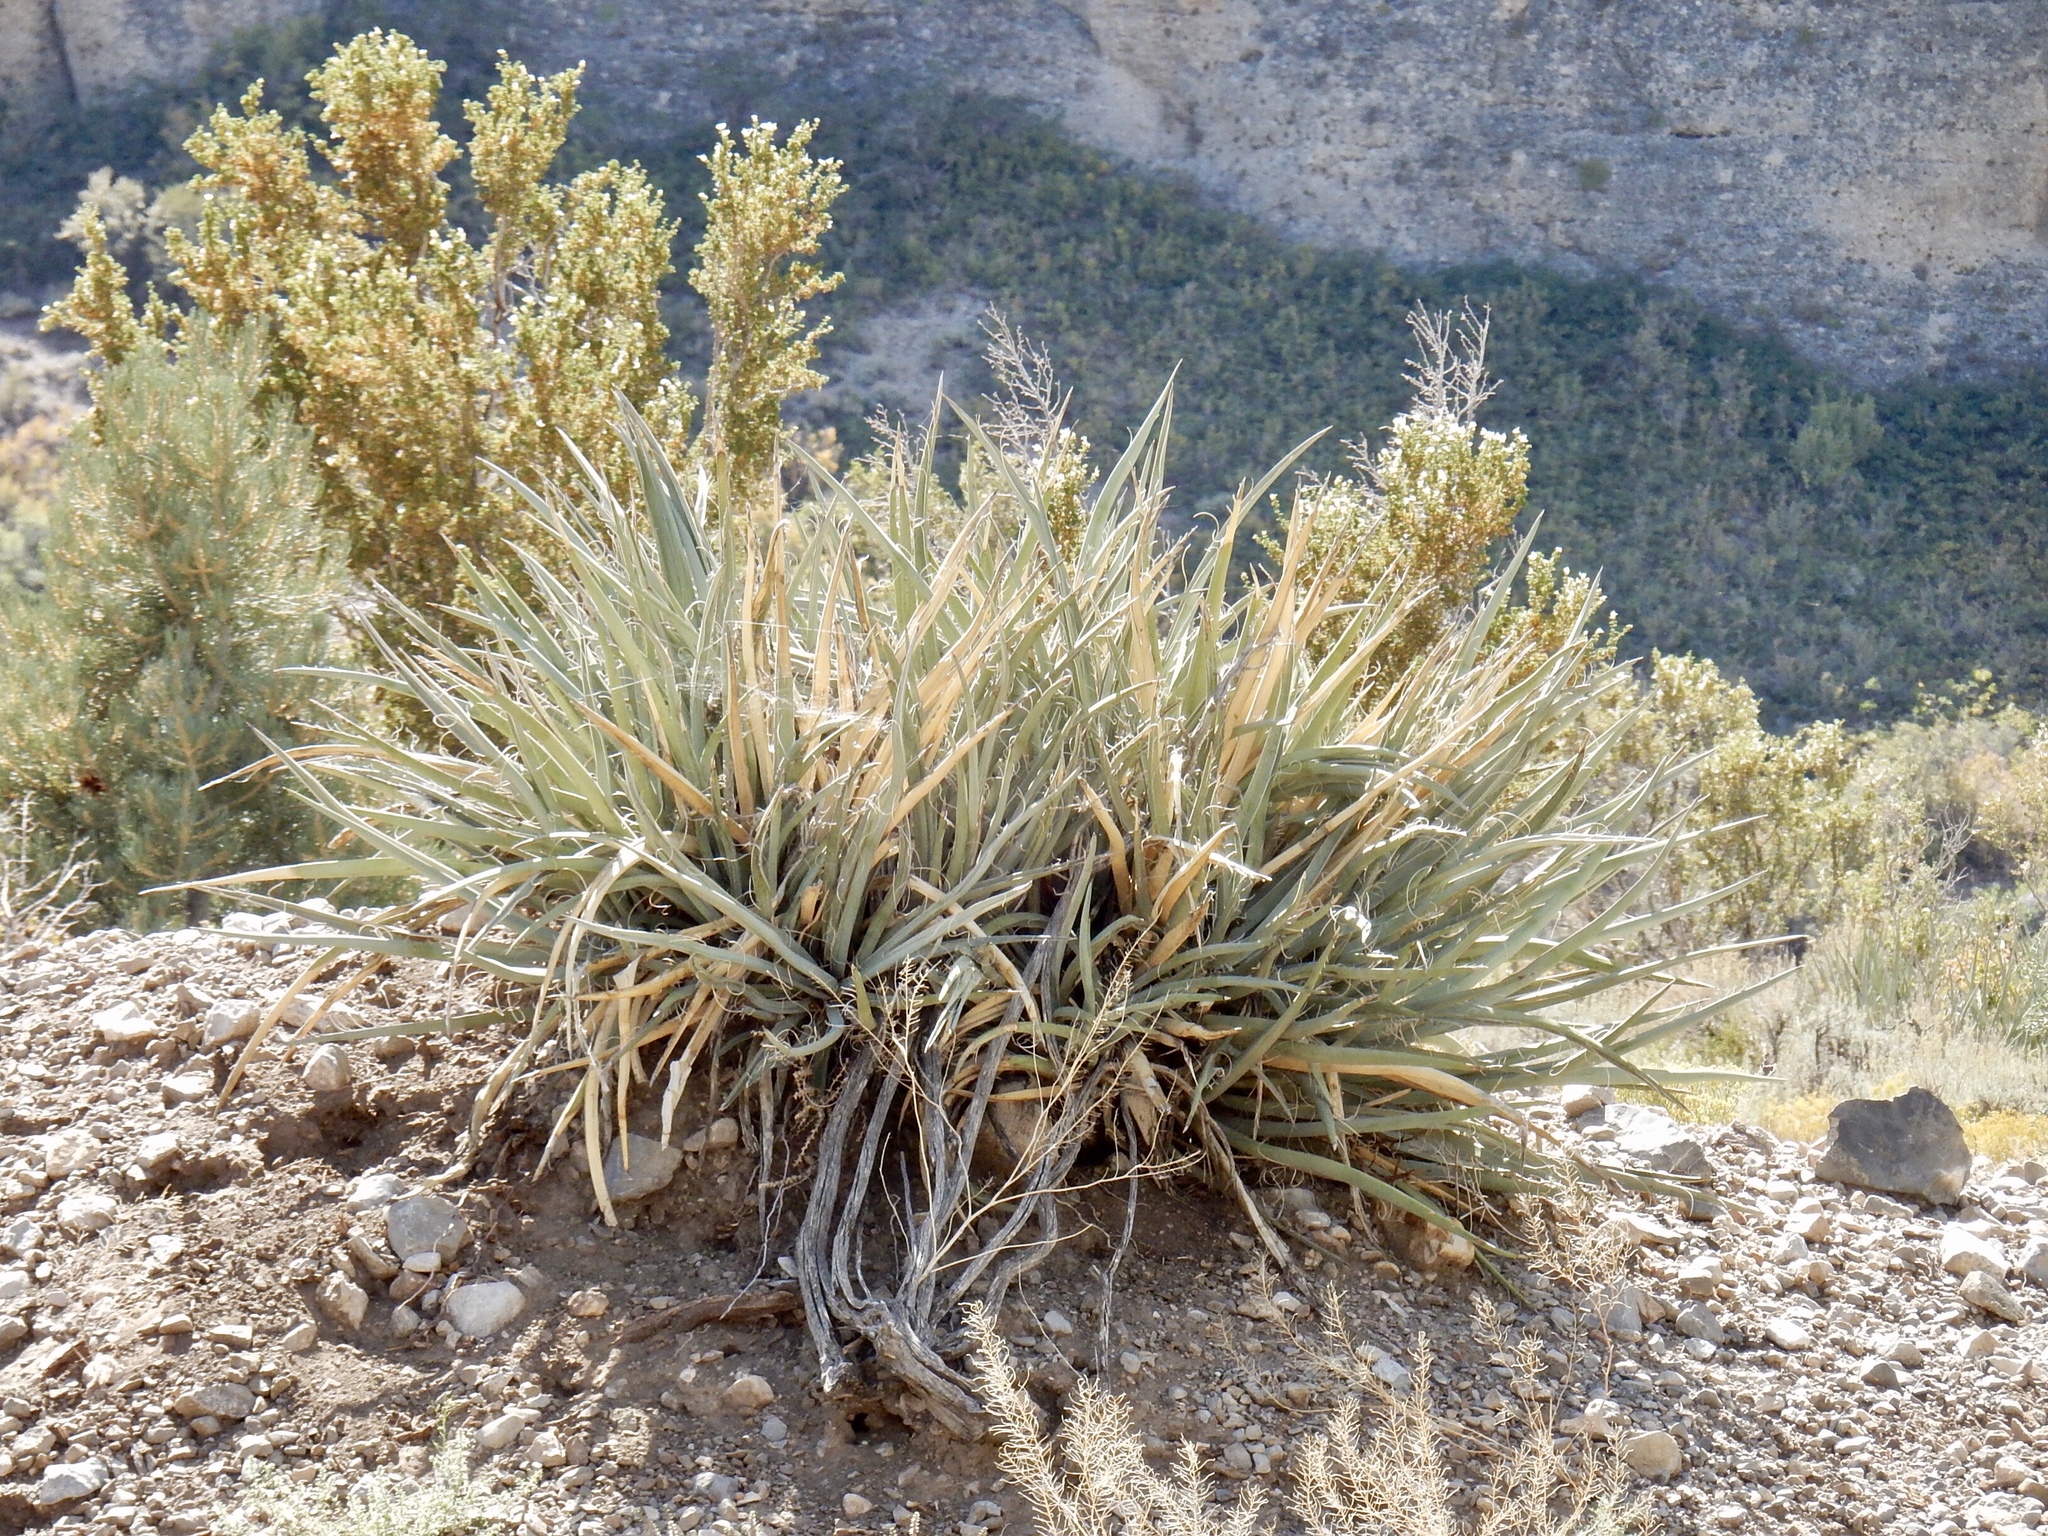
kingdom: Plantae
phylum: Tracheophyta
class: Liliopsida
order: Asparagales
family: Asparagaceae
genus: Yucca
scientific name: Yucca baccata
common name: Banana yucca
